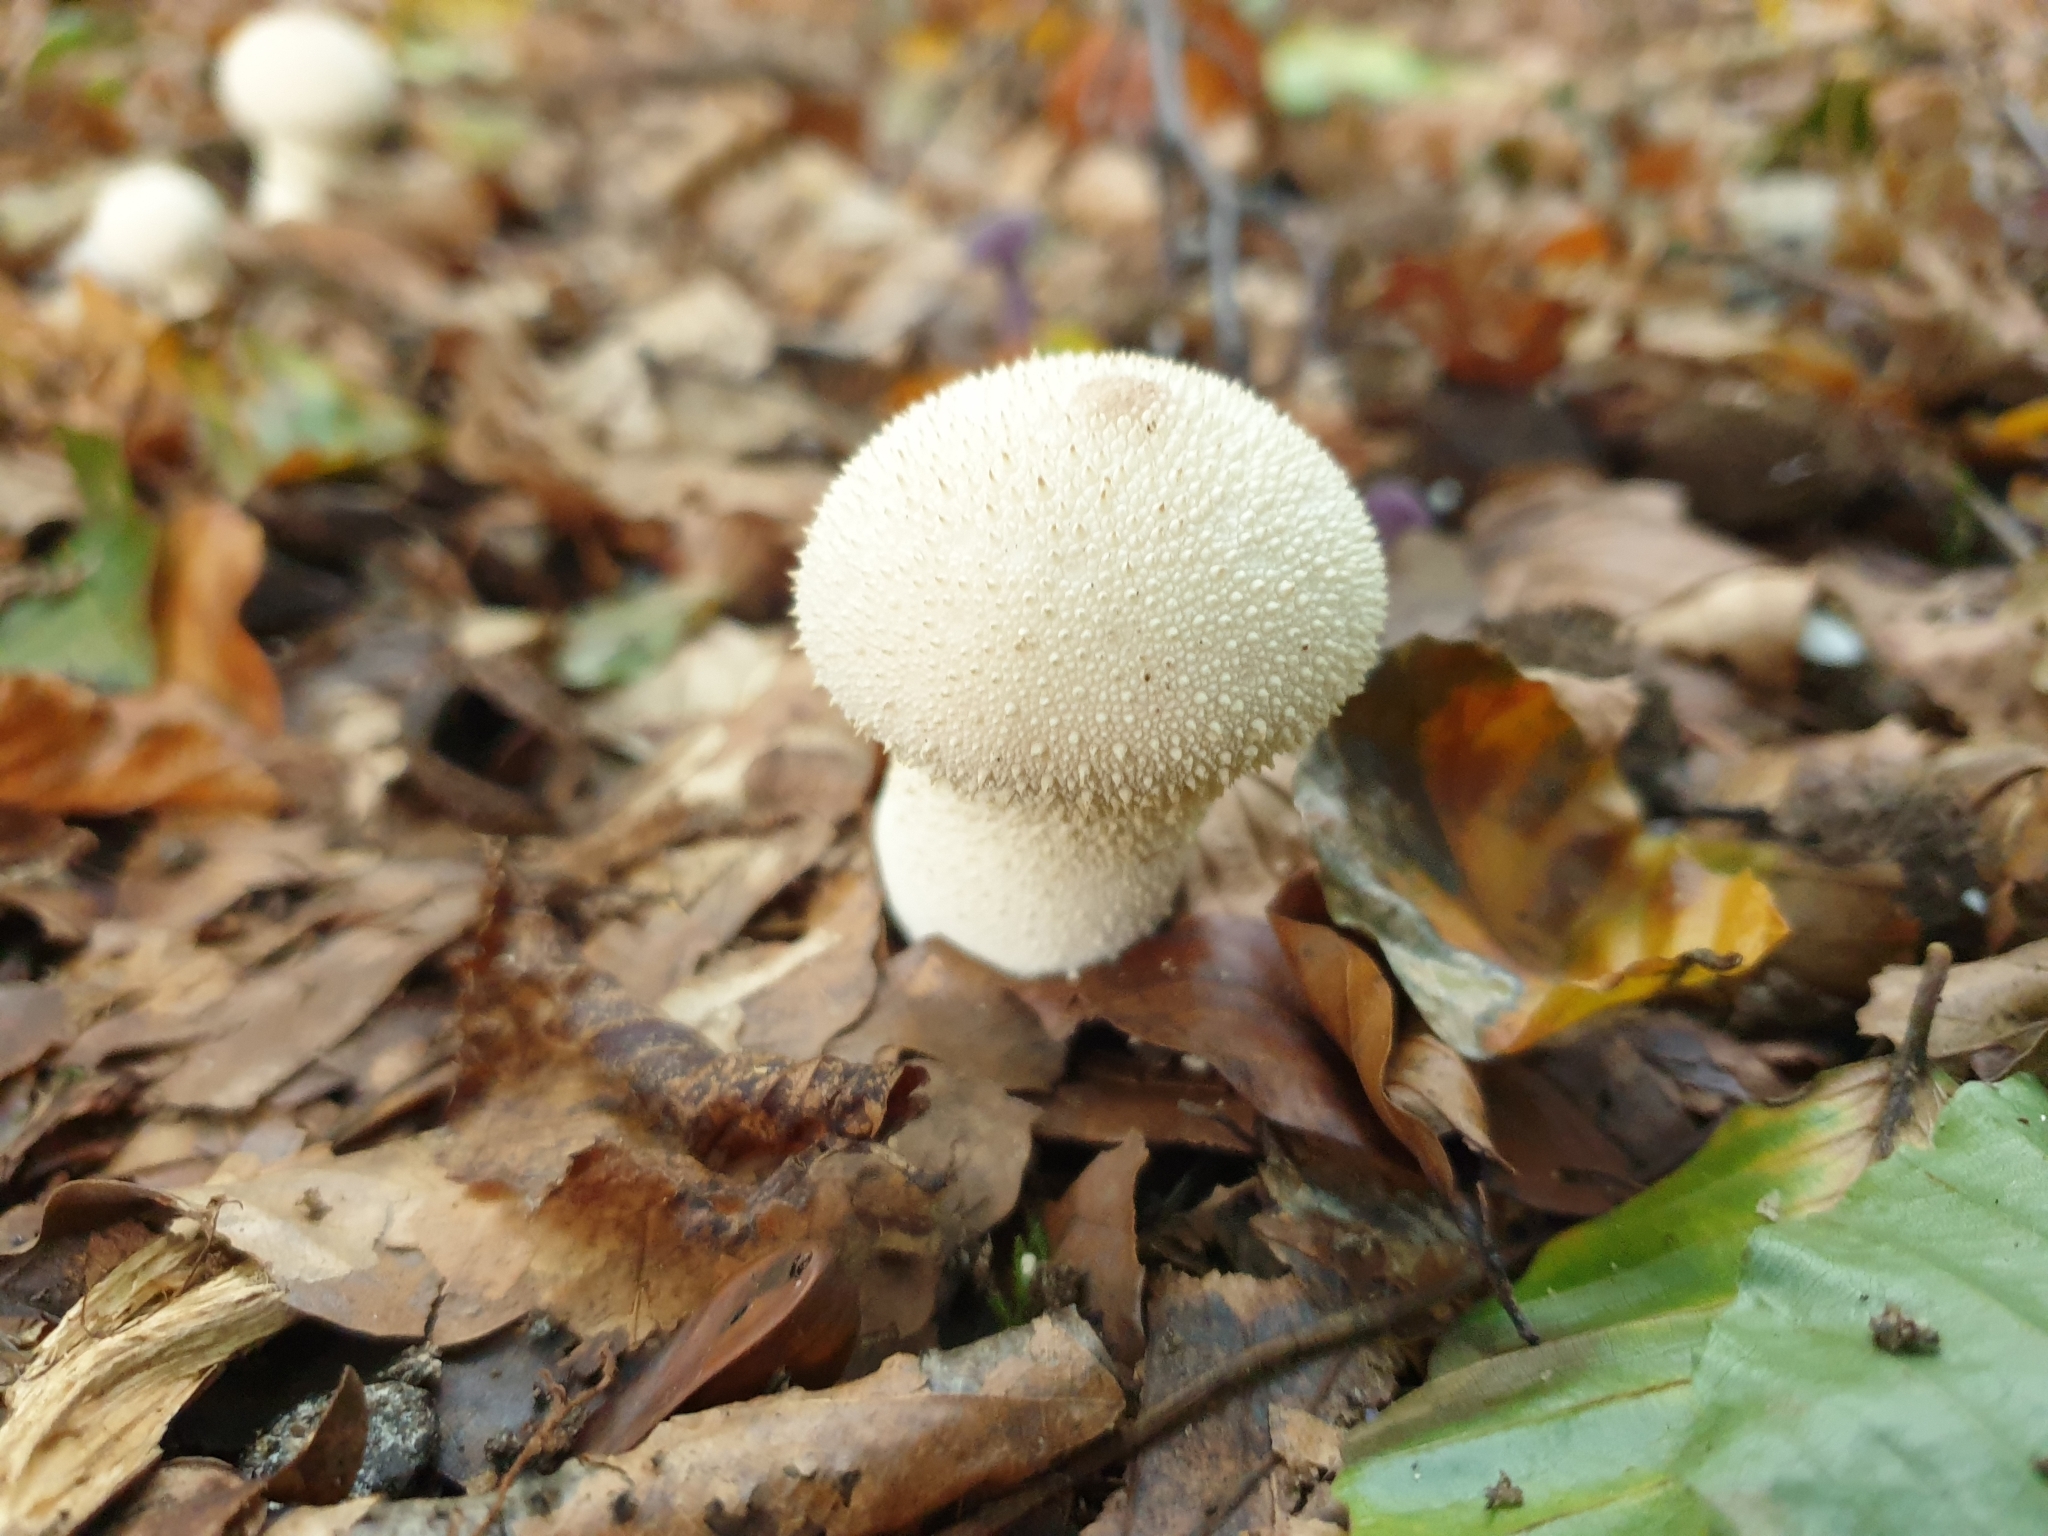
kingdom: Fungi
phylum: Basidiomycota
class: Agaricomycetes
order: Agaricales
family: Lycoperdaceae
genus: Lycoperdon
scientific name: Lycoperdon perlatum
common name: Common puffball
